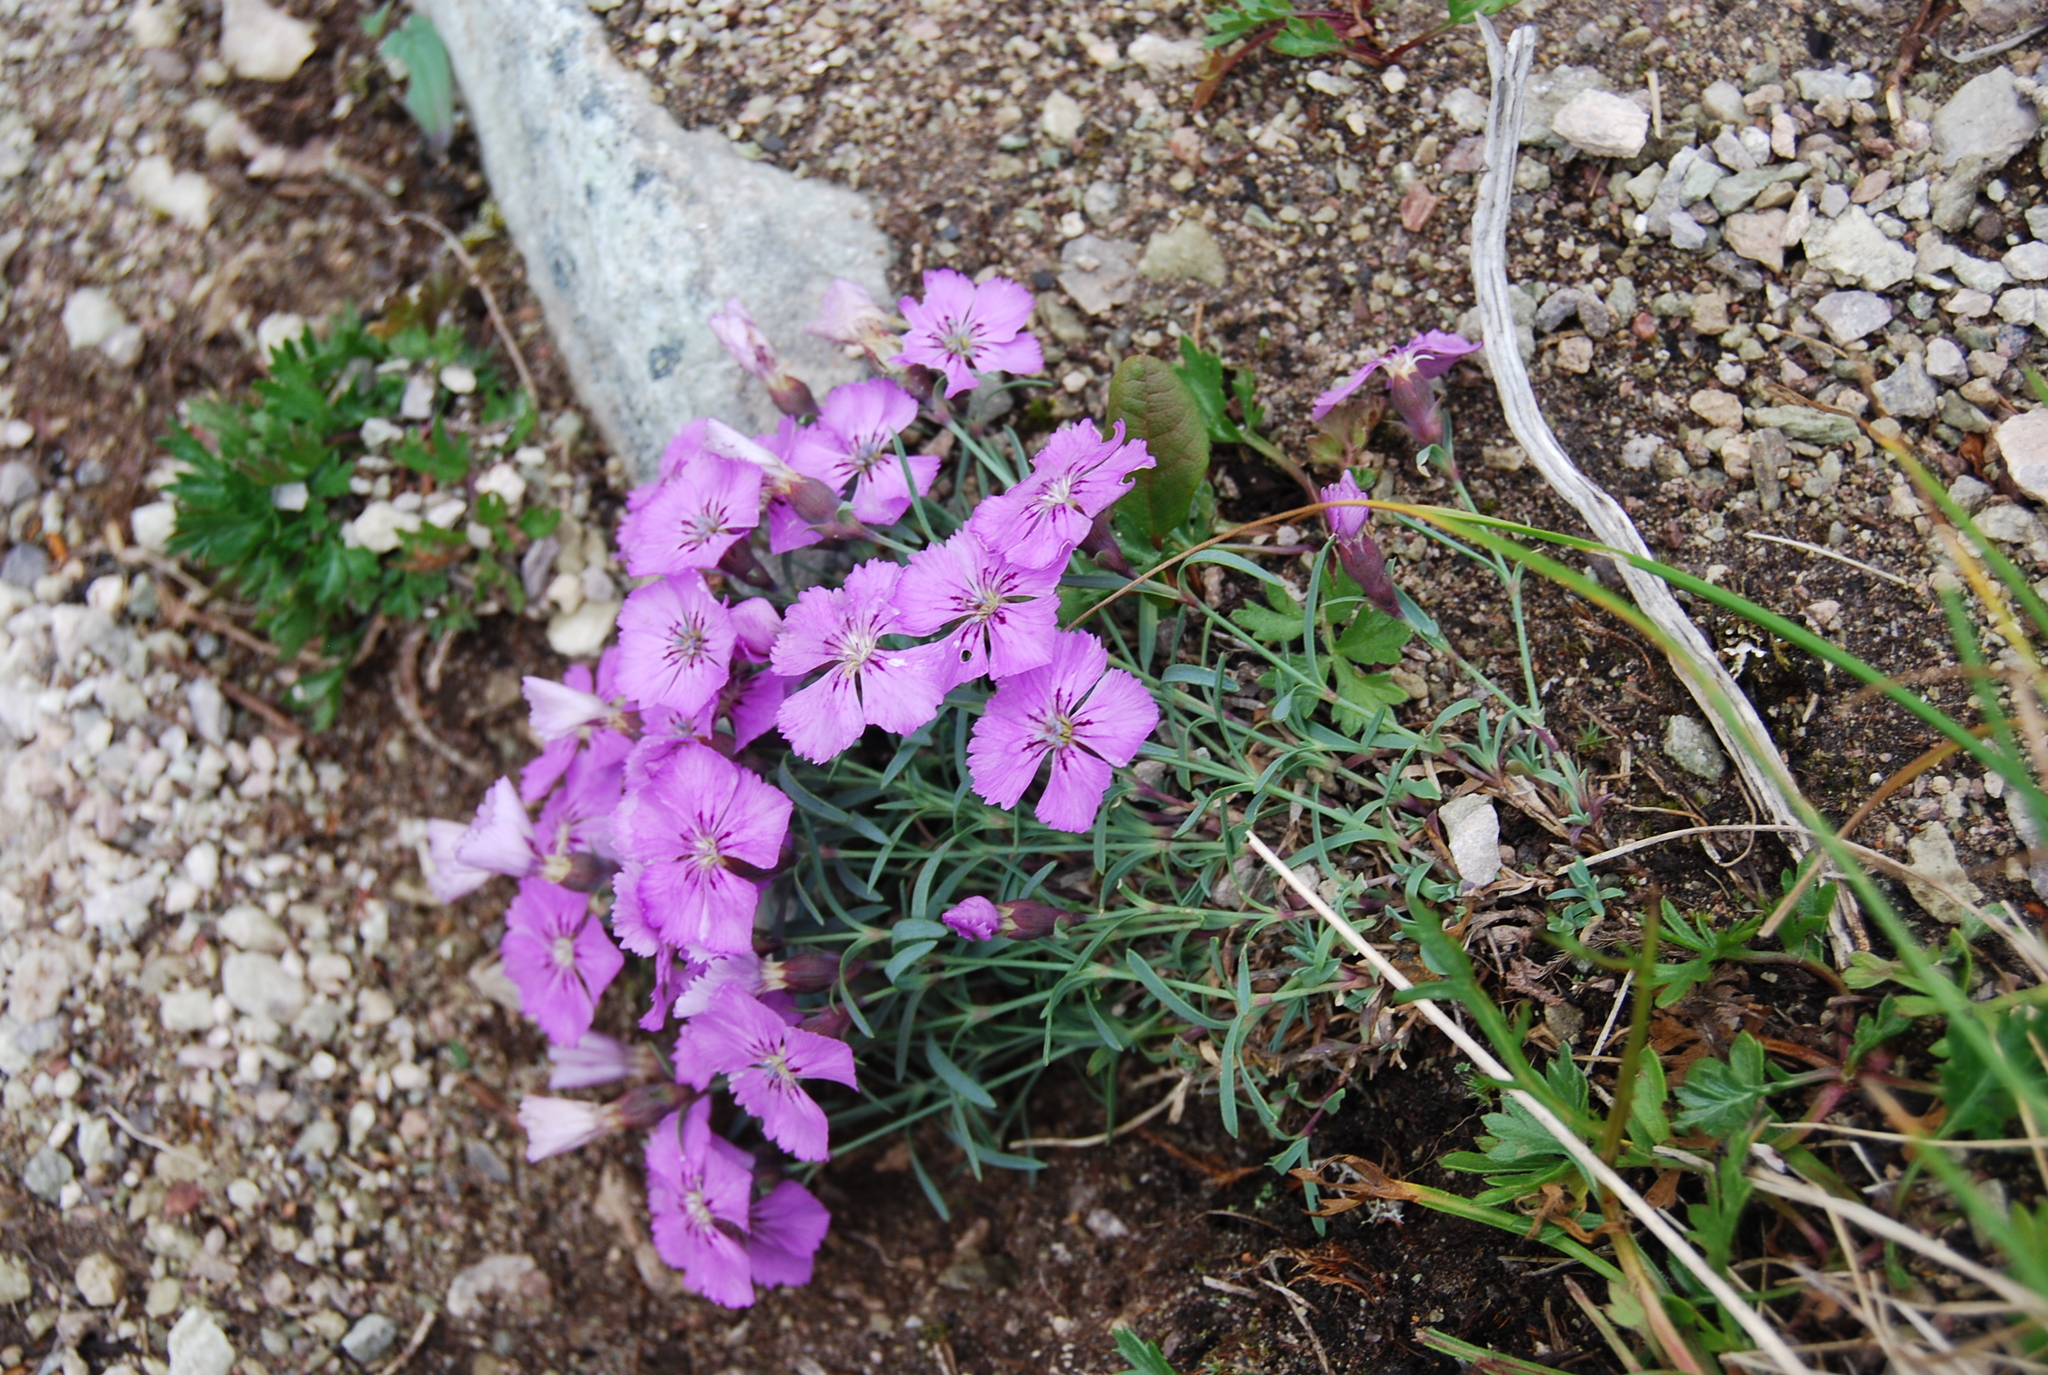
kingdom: Plantae
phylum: Tracheophyta
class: Magnoliopsida
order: Caryophyllales
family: Caryophyllaceae
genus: Dianthus
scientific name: Dianthus repens
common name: Northern pink
